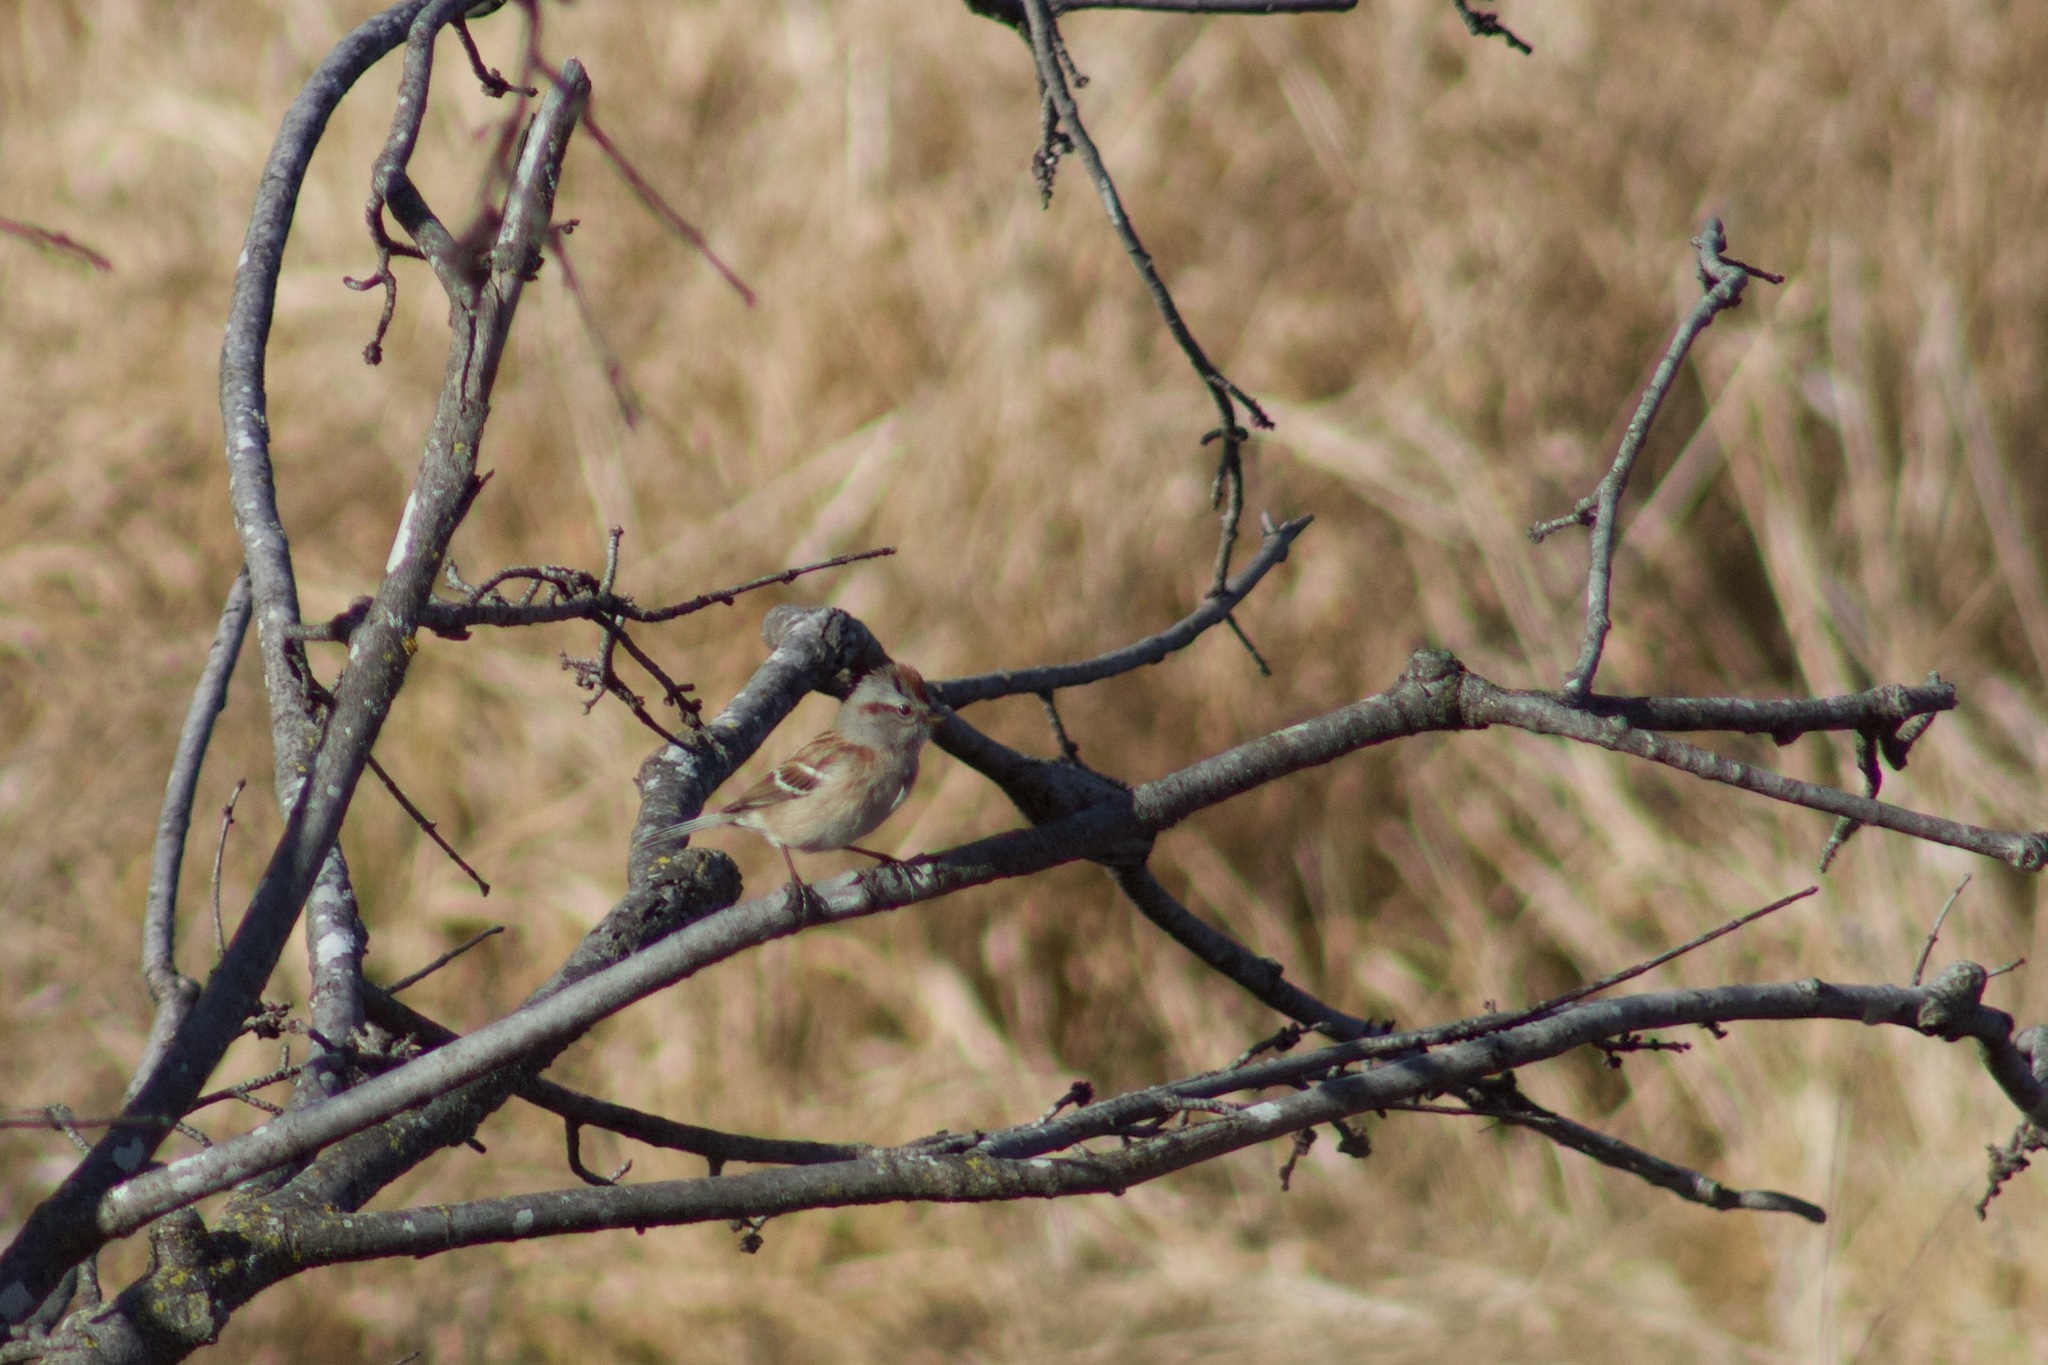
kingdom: Animalia
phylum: Chordata
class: Aves
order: Passeriformes
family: Passerellidae
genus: Spizelloides
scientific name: Spizelloides arborea
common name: American tree sparrow
